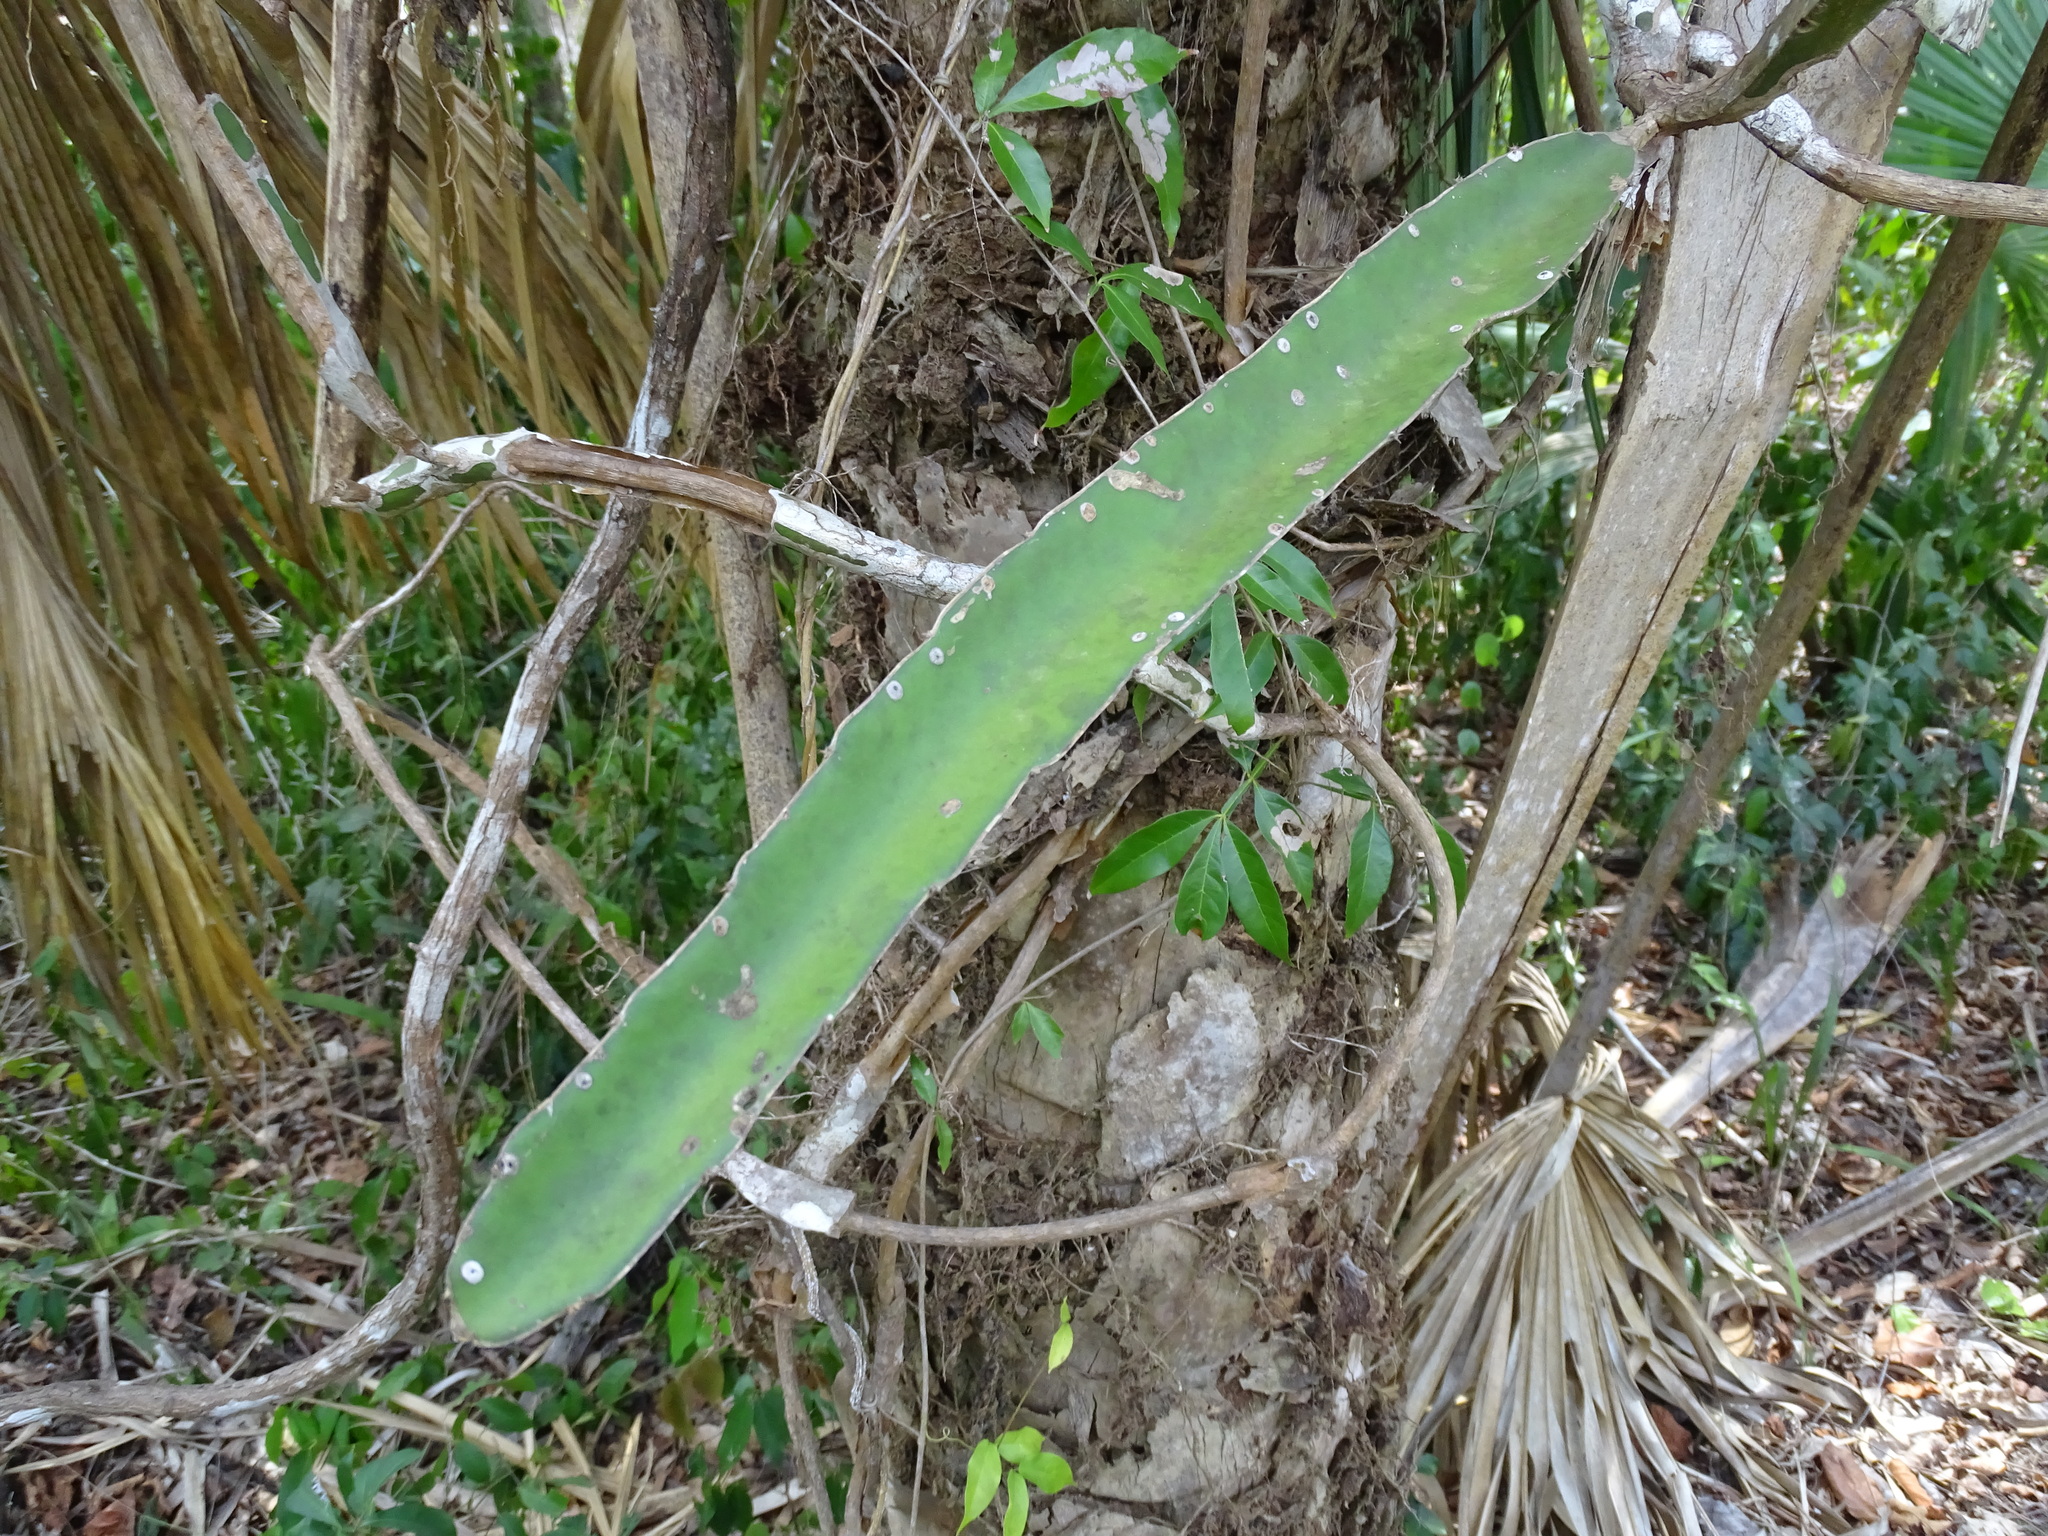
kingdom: Plantae
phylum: Tracheophyta
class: Magnoliopsida
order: Caryophyllales
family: Cactaceae
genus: Selenicereus
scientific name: Selenicereus triangularis
